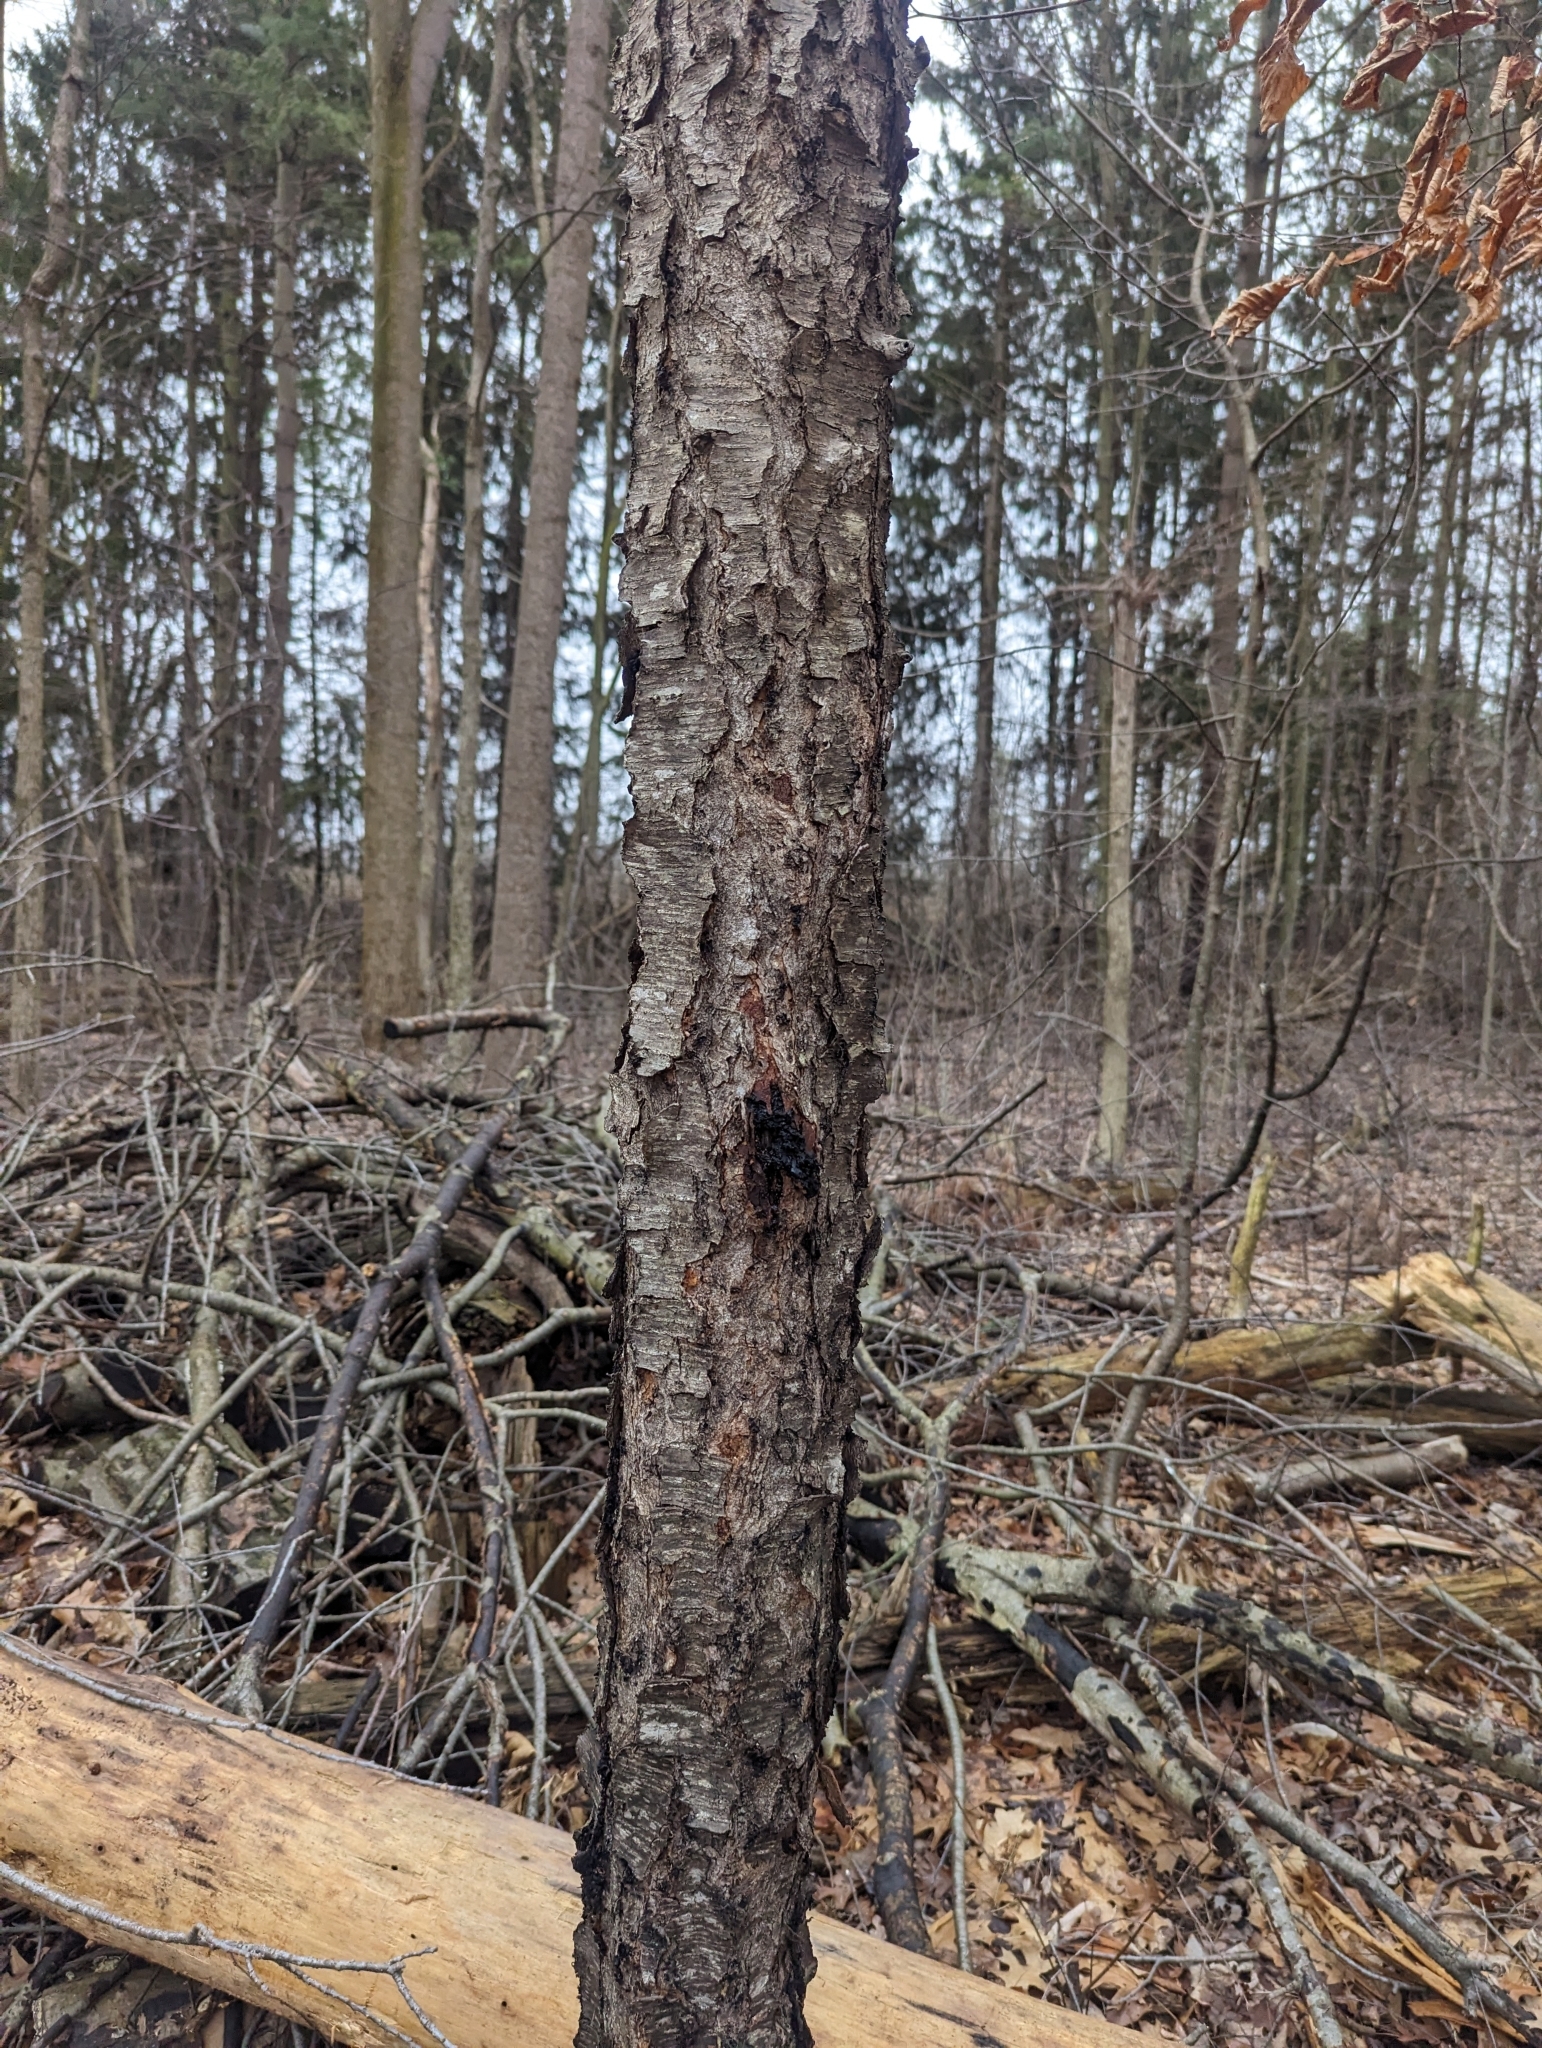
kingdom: Plantae
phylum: Tracheophyta
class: Magnoliopsida
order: Rosales
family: Rosaceae
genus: Prunus
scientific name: Prunus serotina
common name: Black cherry
